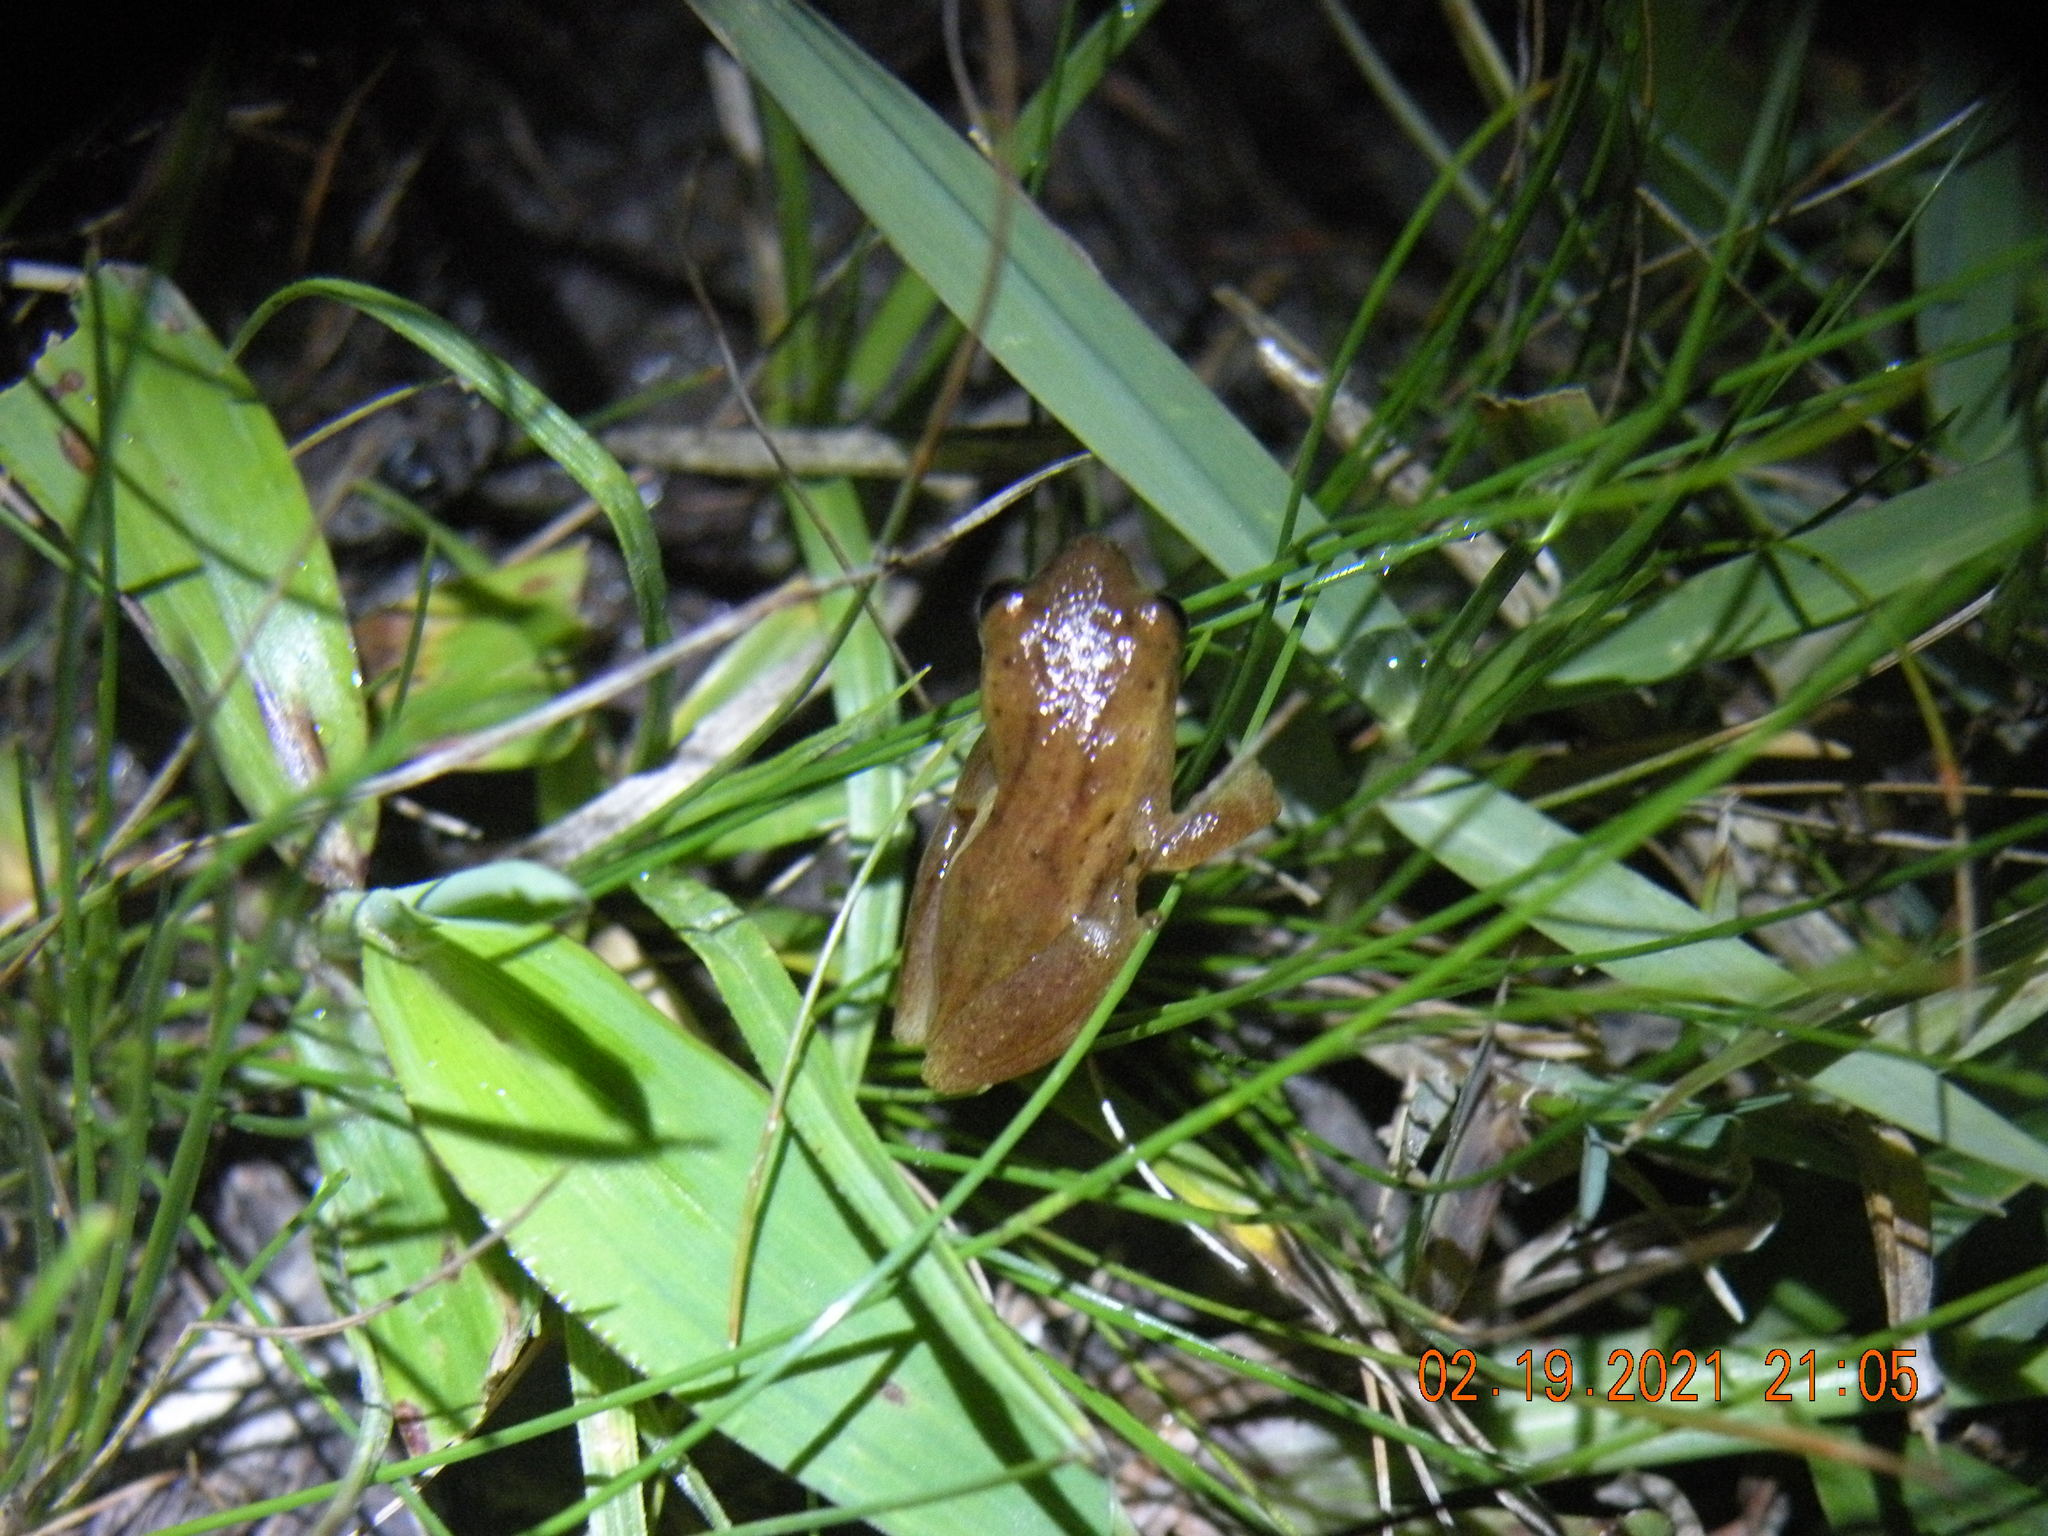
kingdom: Animalia
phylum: Chordata
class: Amphibia
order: Anura
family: Hylidae
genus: Dendropsophus
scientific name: Dendropsophus sanborni
